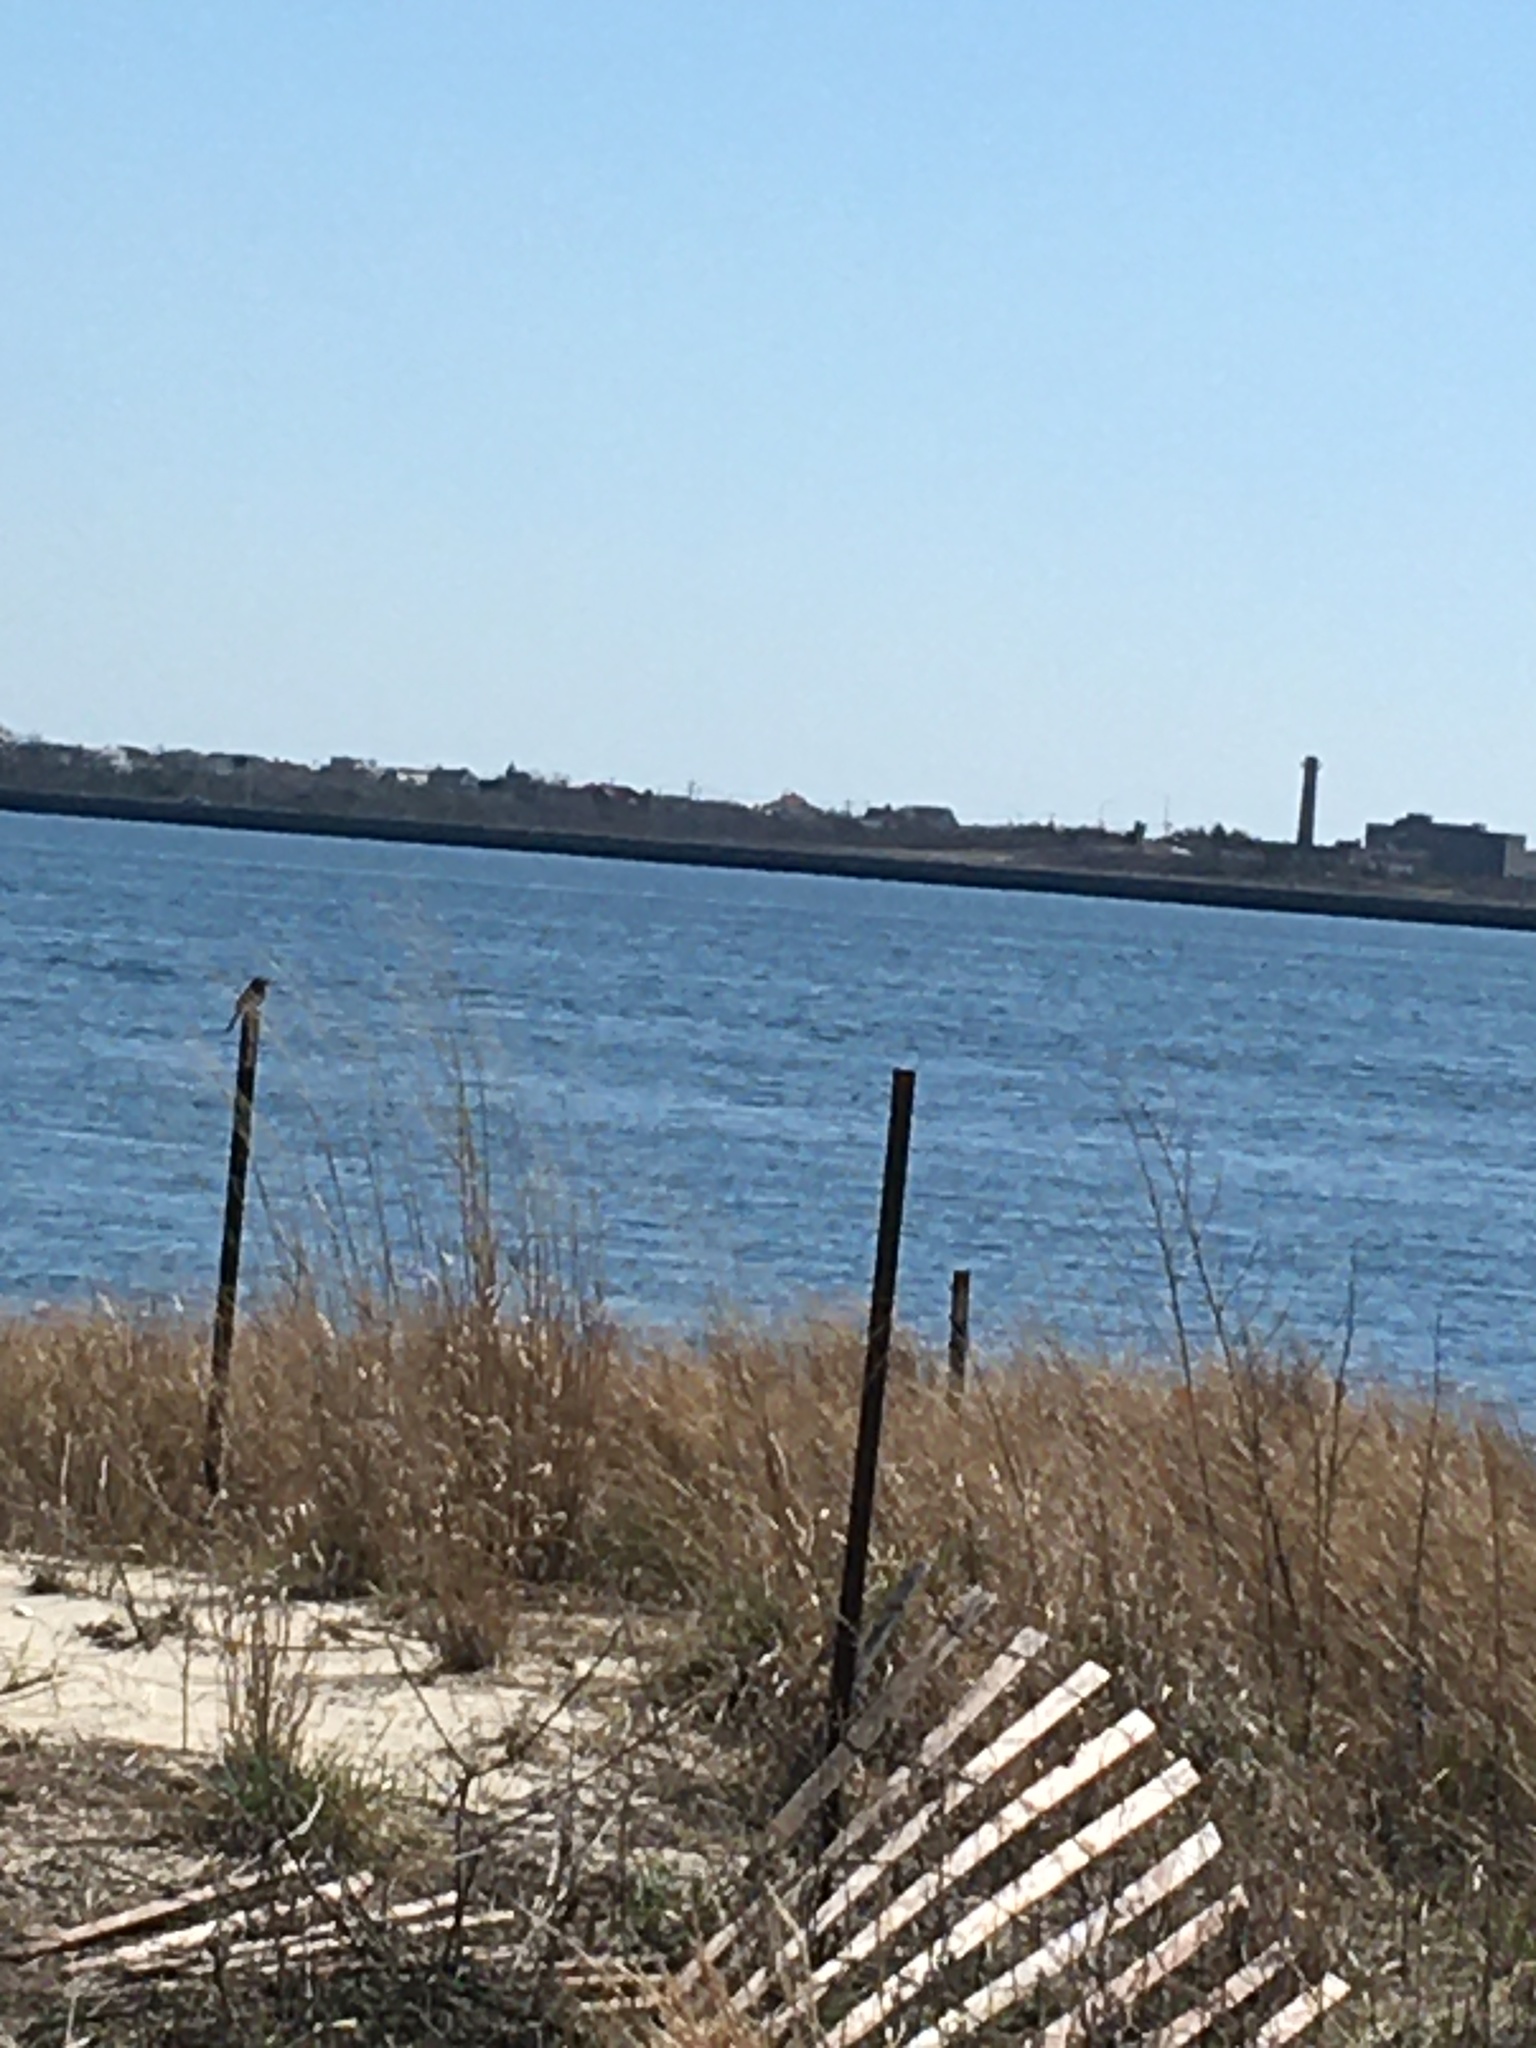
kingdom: Animalia
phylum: Chordata
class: Aves
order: Passeriformes
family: Passerellidae
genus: Melospiza
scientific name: Melospiza melodia
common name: Song sparrow
